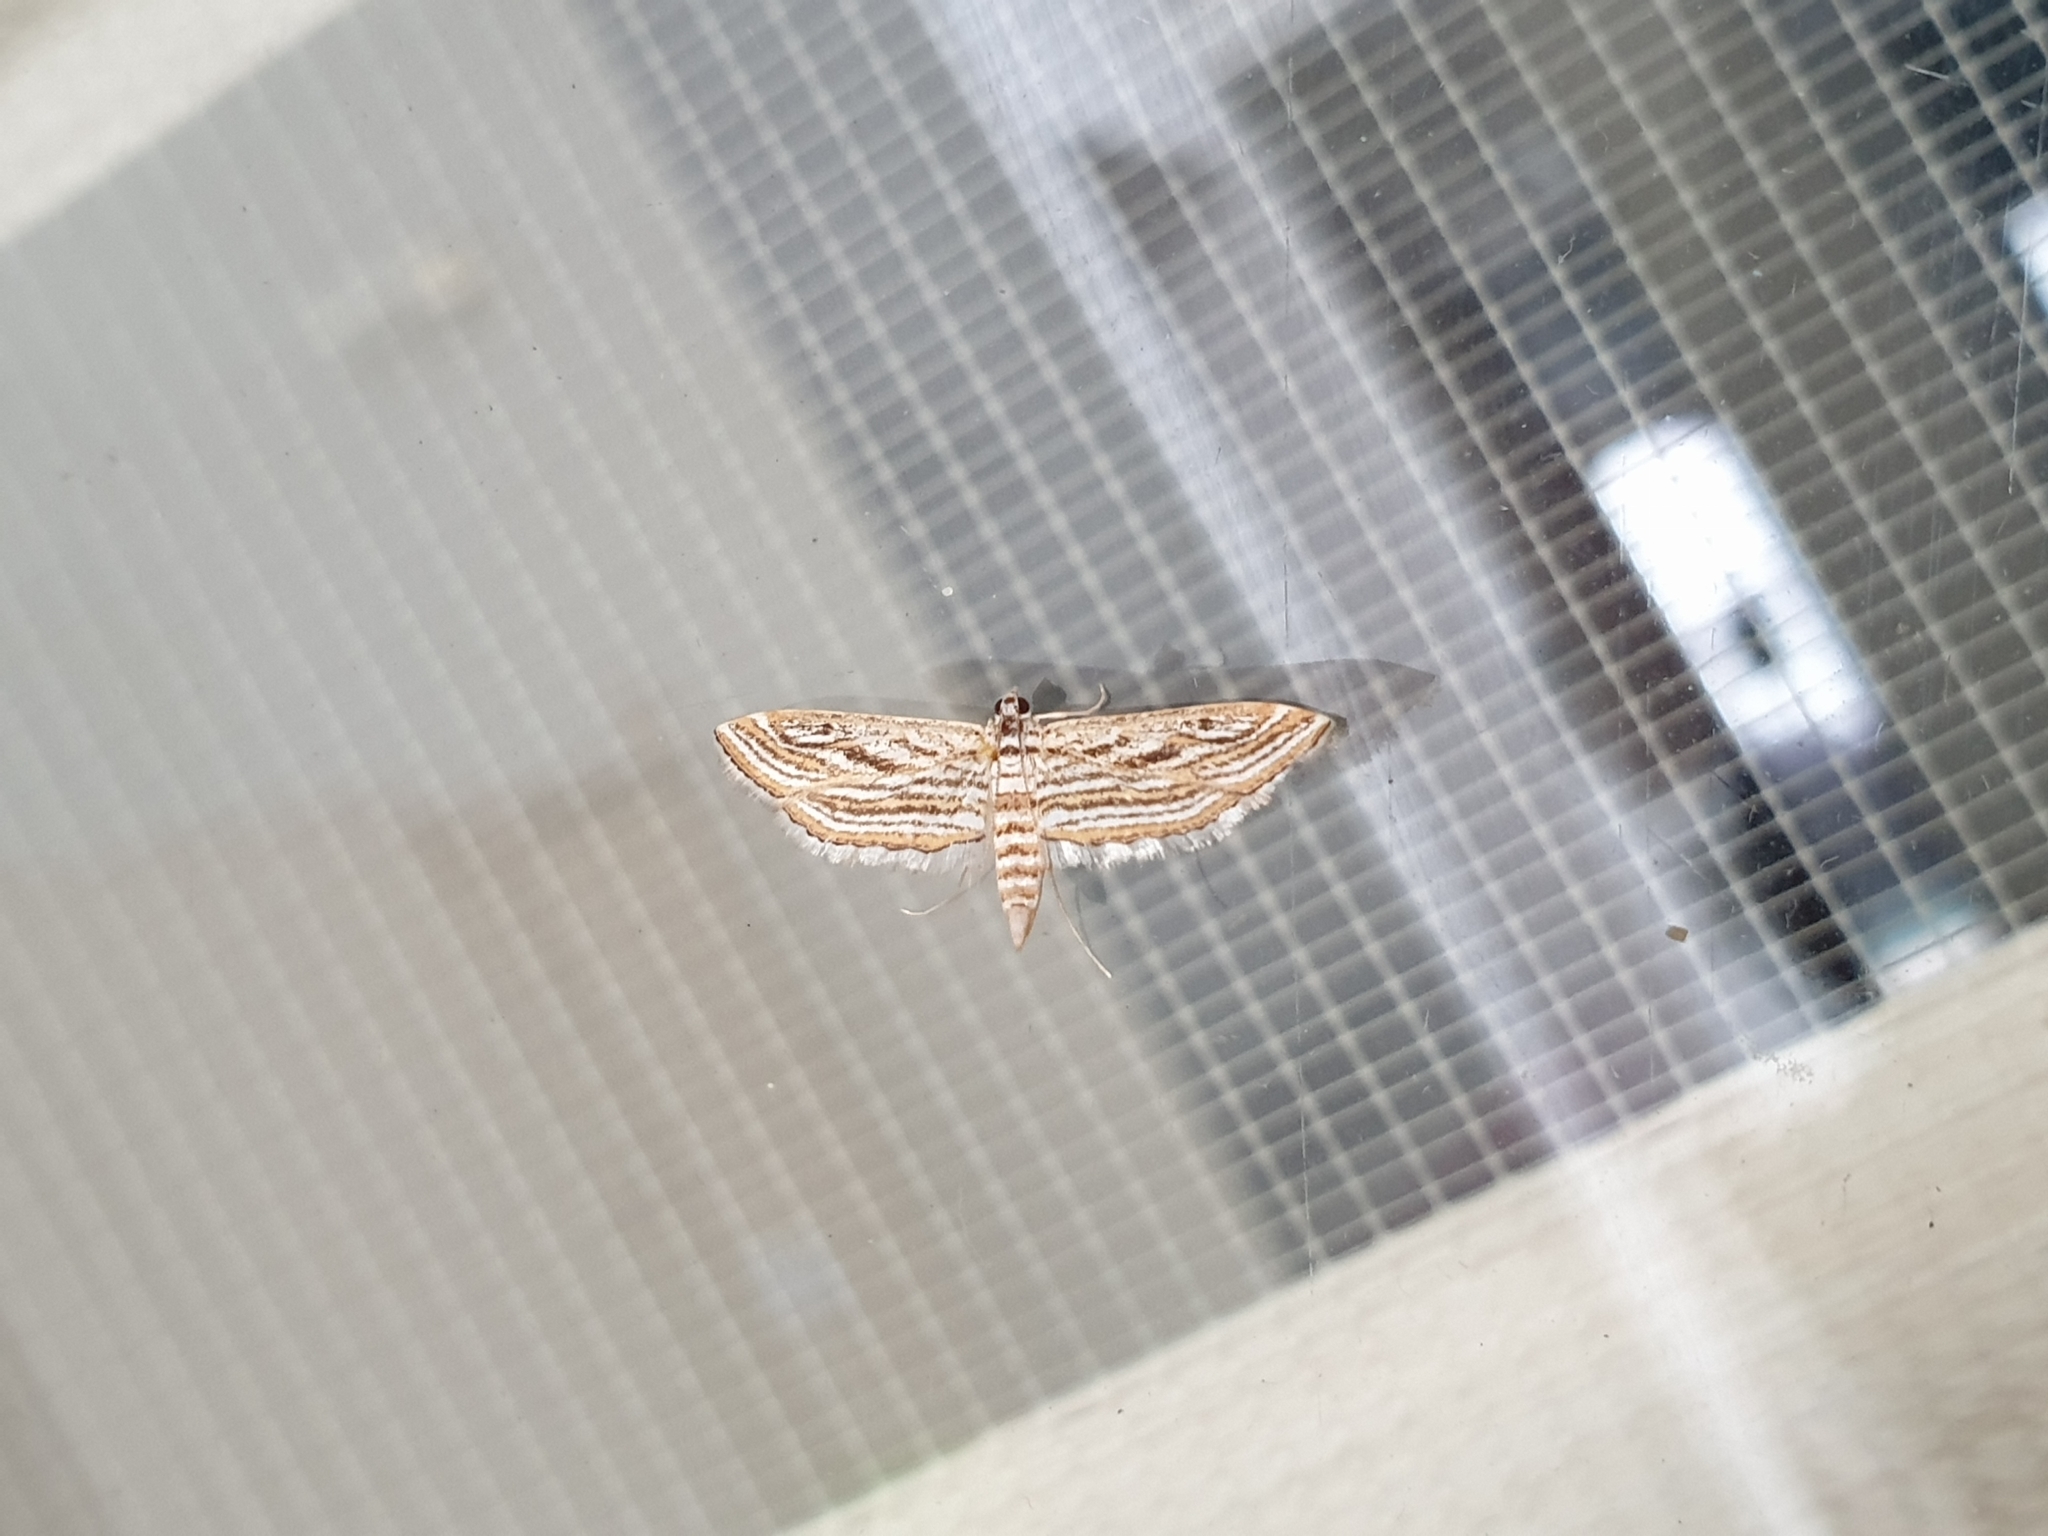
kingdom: Animalia
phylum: Arthropoda
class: Insecta
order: Lepidoptera
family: Crambidae
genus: Parapoynx
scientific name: Parapoynx fluctuosalis
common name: Moth
